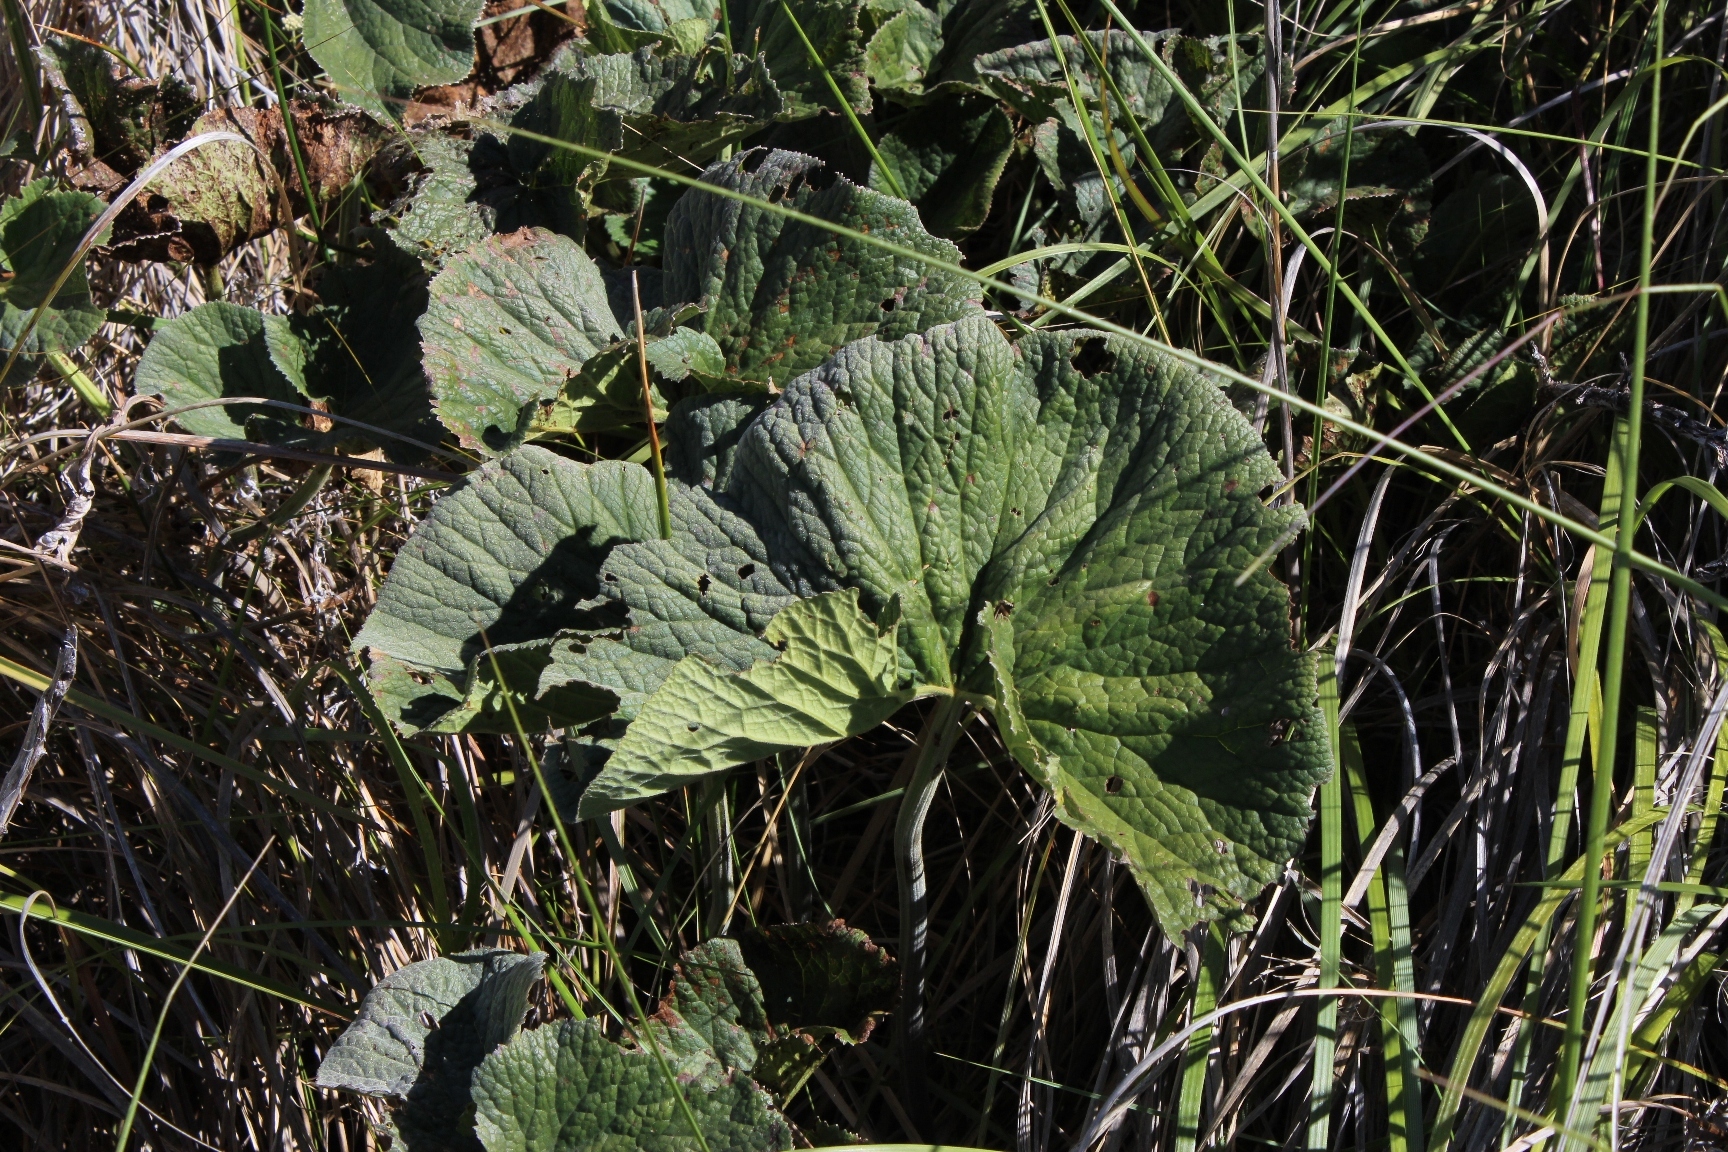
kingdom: Plantae
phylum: Tracheophyta
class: Magnoliopsida
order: Gunnerales
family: Gunneraceae
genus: Gunnera
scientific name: Gunnera perpensa
